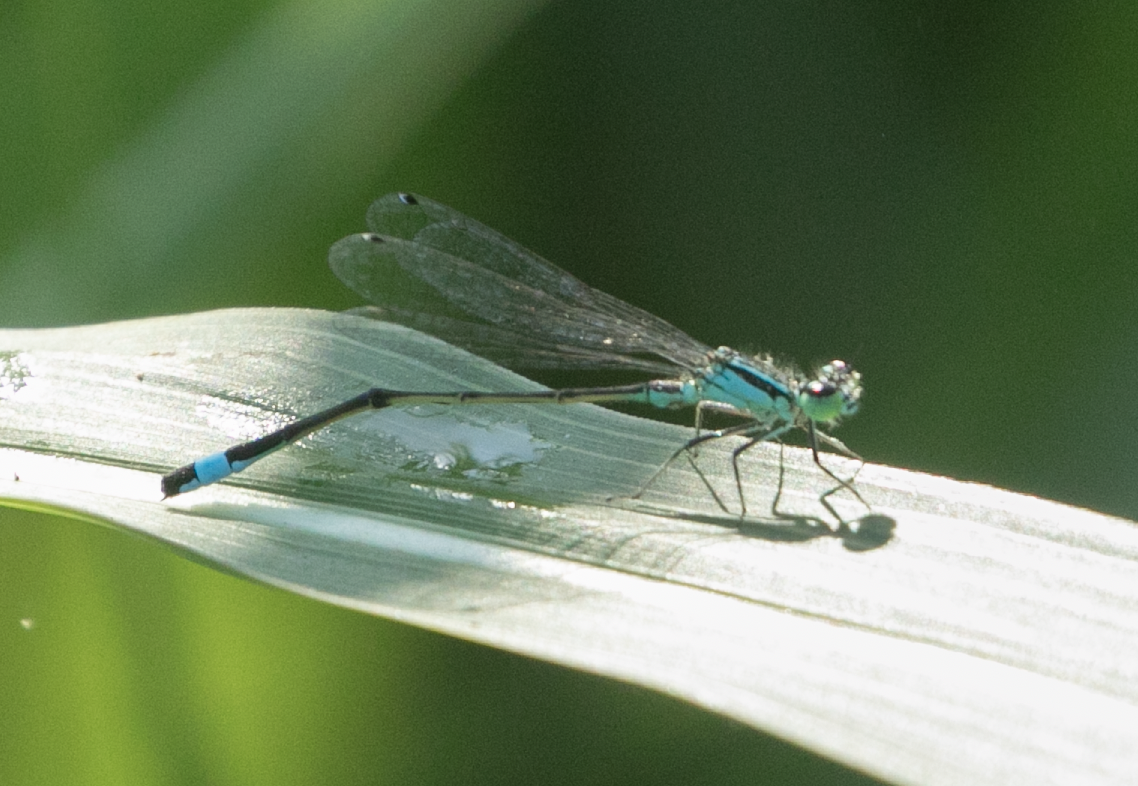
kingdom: Animalia
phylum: Arthropoda
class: Insecta
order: Odonata
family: Coenagrionidae
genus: Ischnura
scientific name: Ischnura elegans
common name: Blue-tailed damselfly
